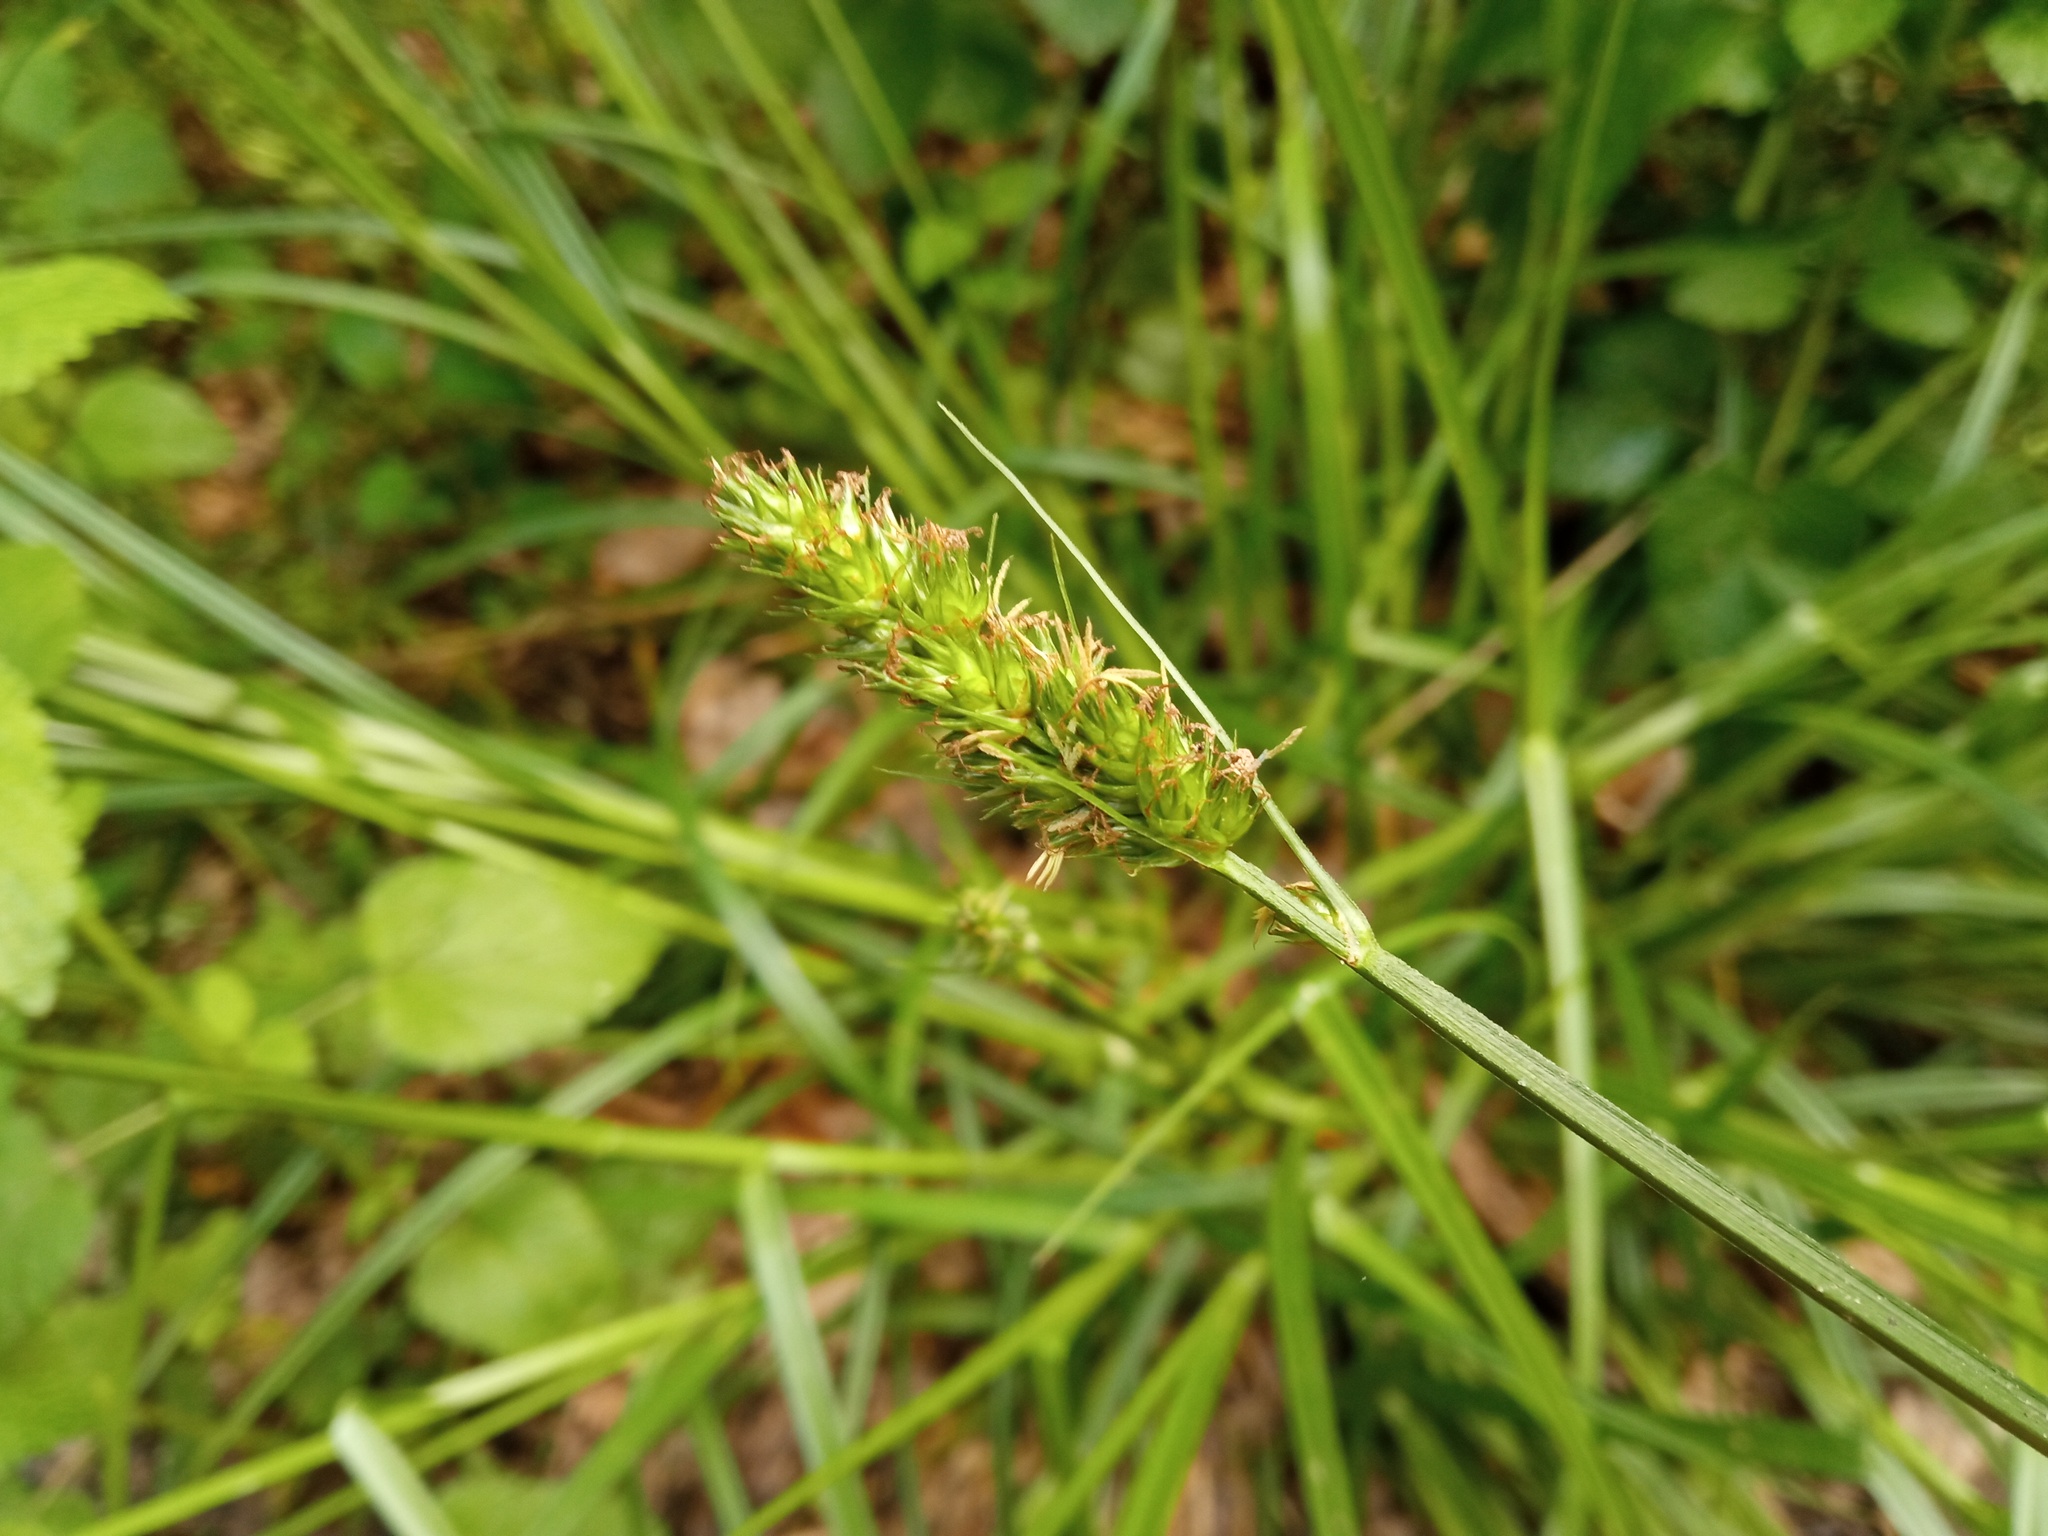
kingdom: Plantae
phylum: Tracheophyta
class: Liliopsida
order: Poales
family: Cyperaceae
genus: Carex
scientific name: Carex otrubae
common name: False fox-sedge
